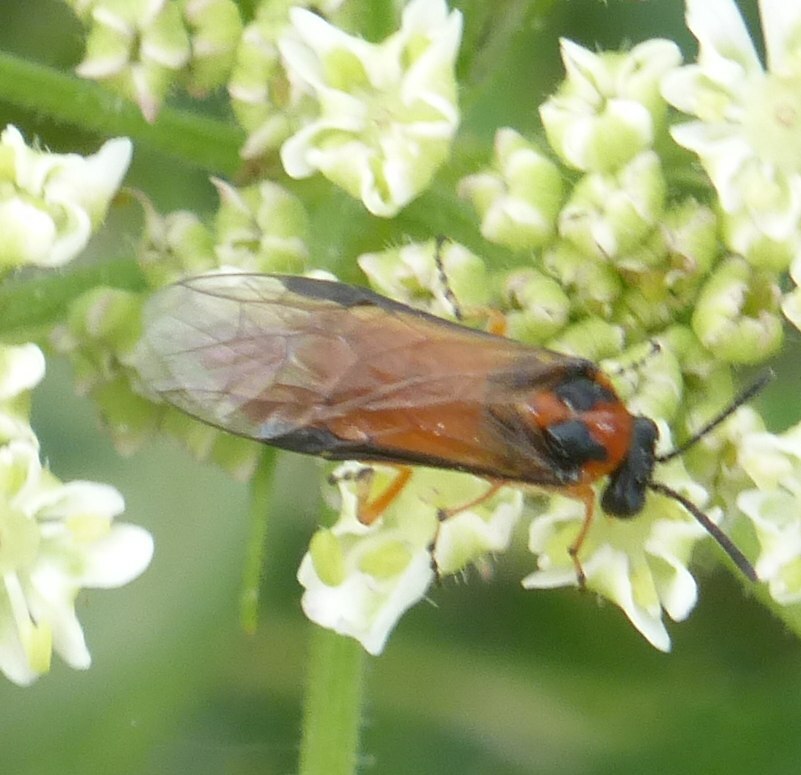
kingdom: Animalia
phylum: Arthropoda
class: Insecta
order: Hymenoptera
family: Tenthredinidae
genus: Athalia
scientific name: Athalia rosae
